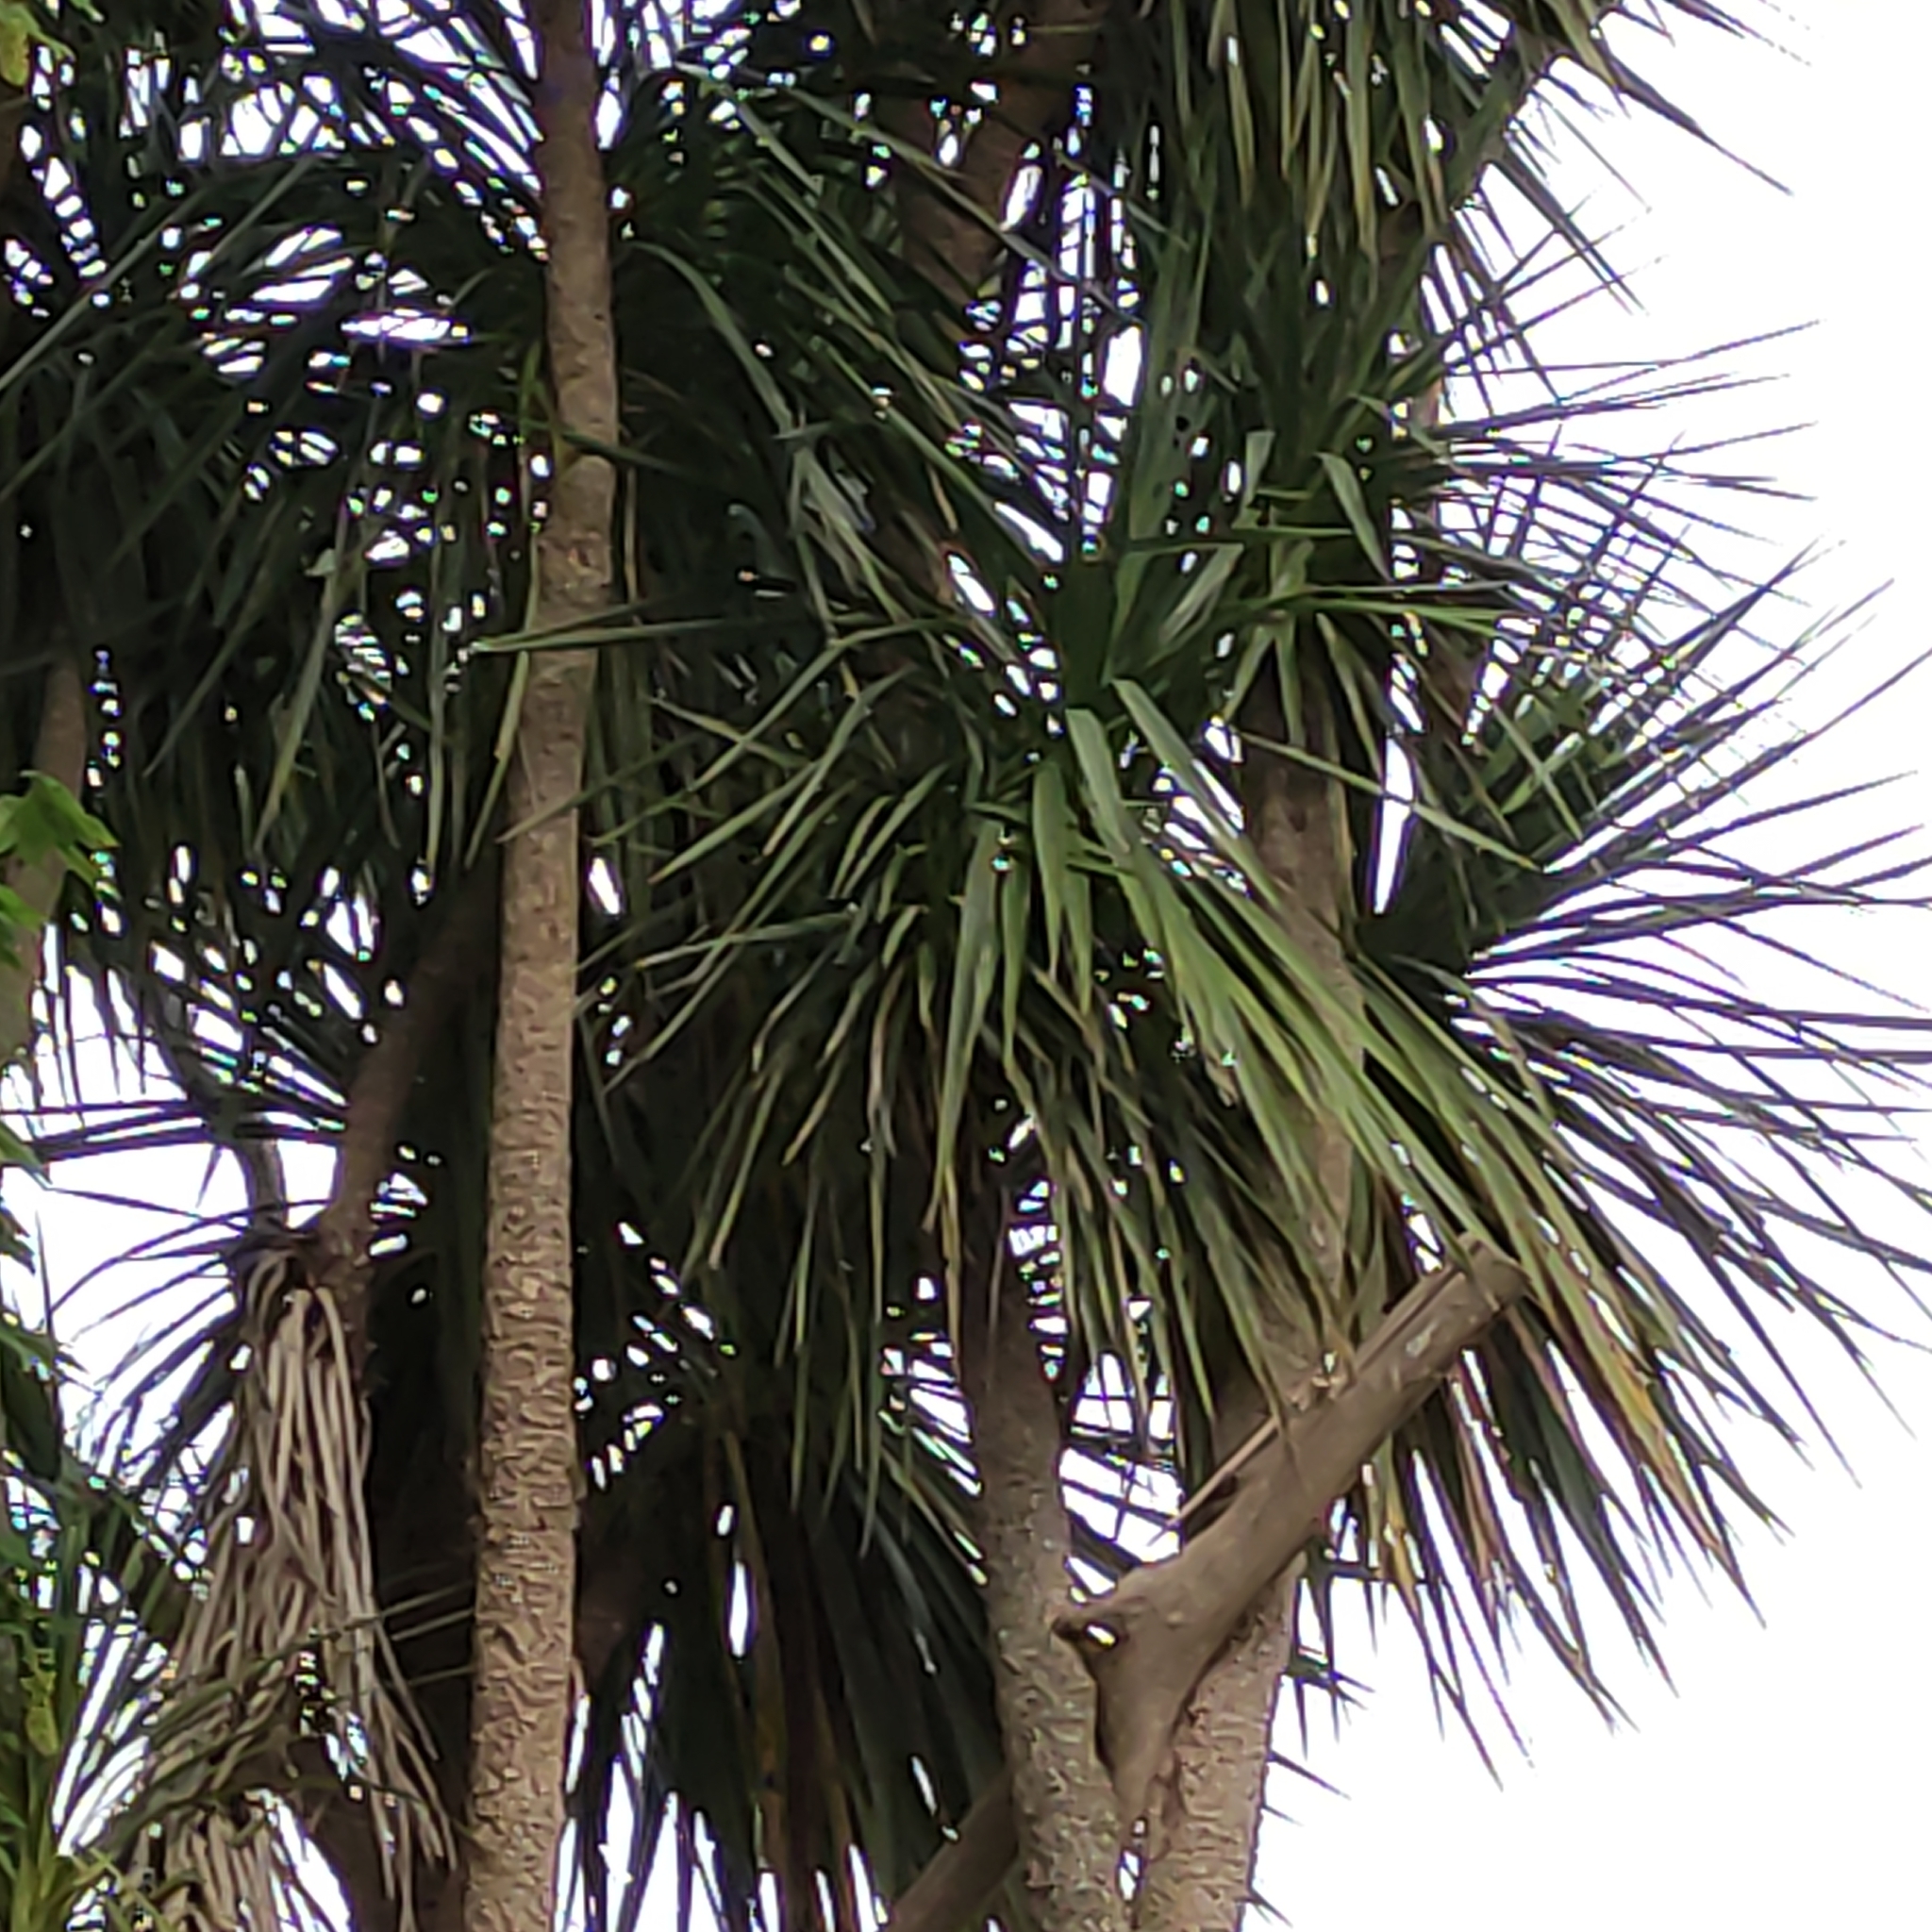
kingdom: Plantae
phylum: Tracheophyta
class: Liliopsida
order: Asparagales
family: Asparagaceae
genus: Cordyline
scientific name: Cordyline australis
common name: Cabbage-palm
